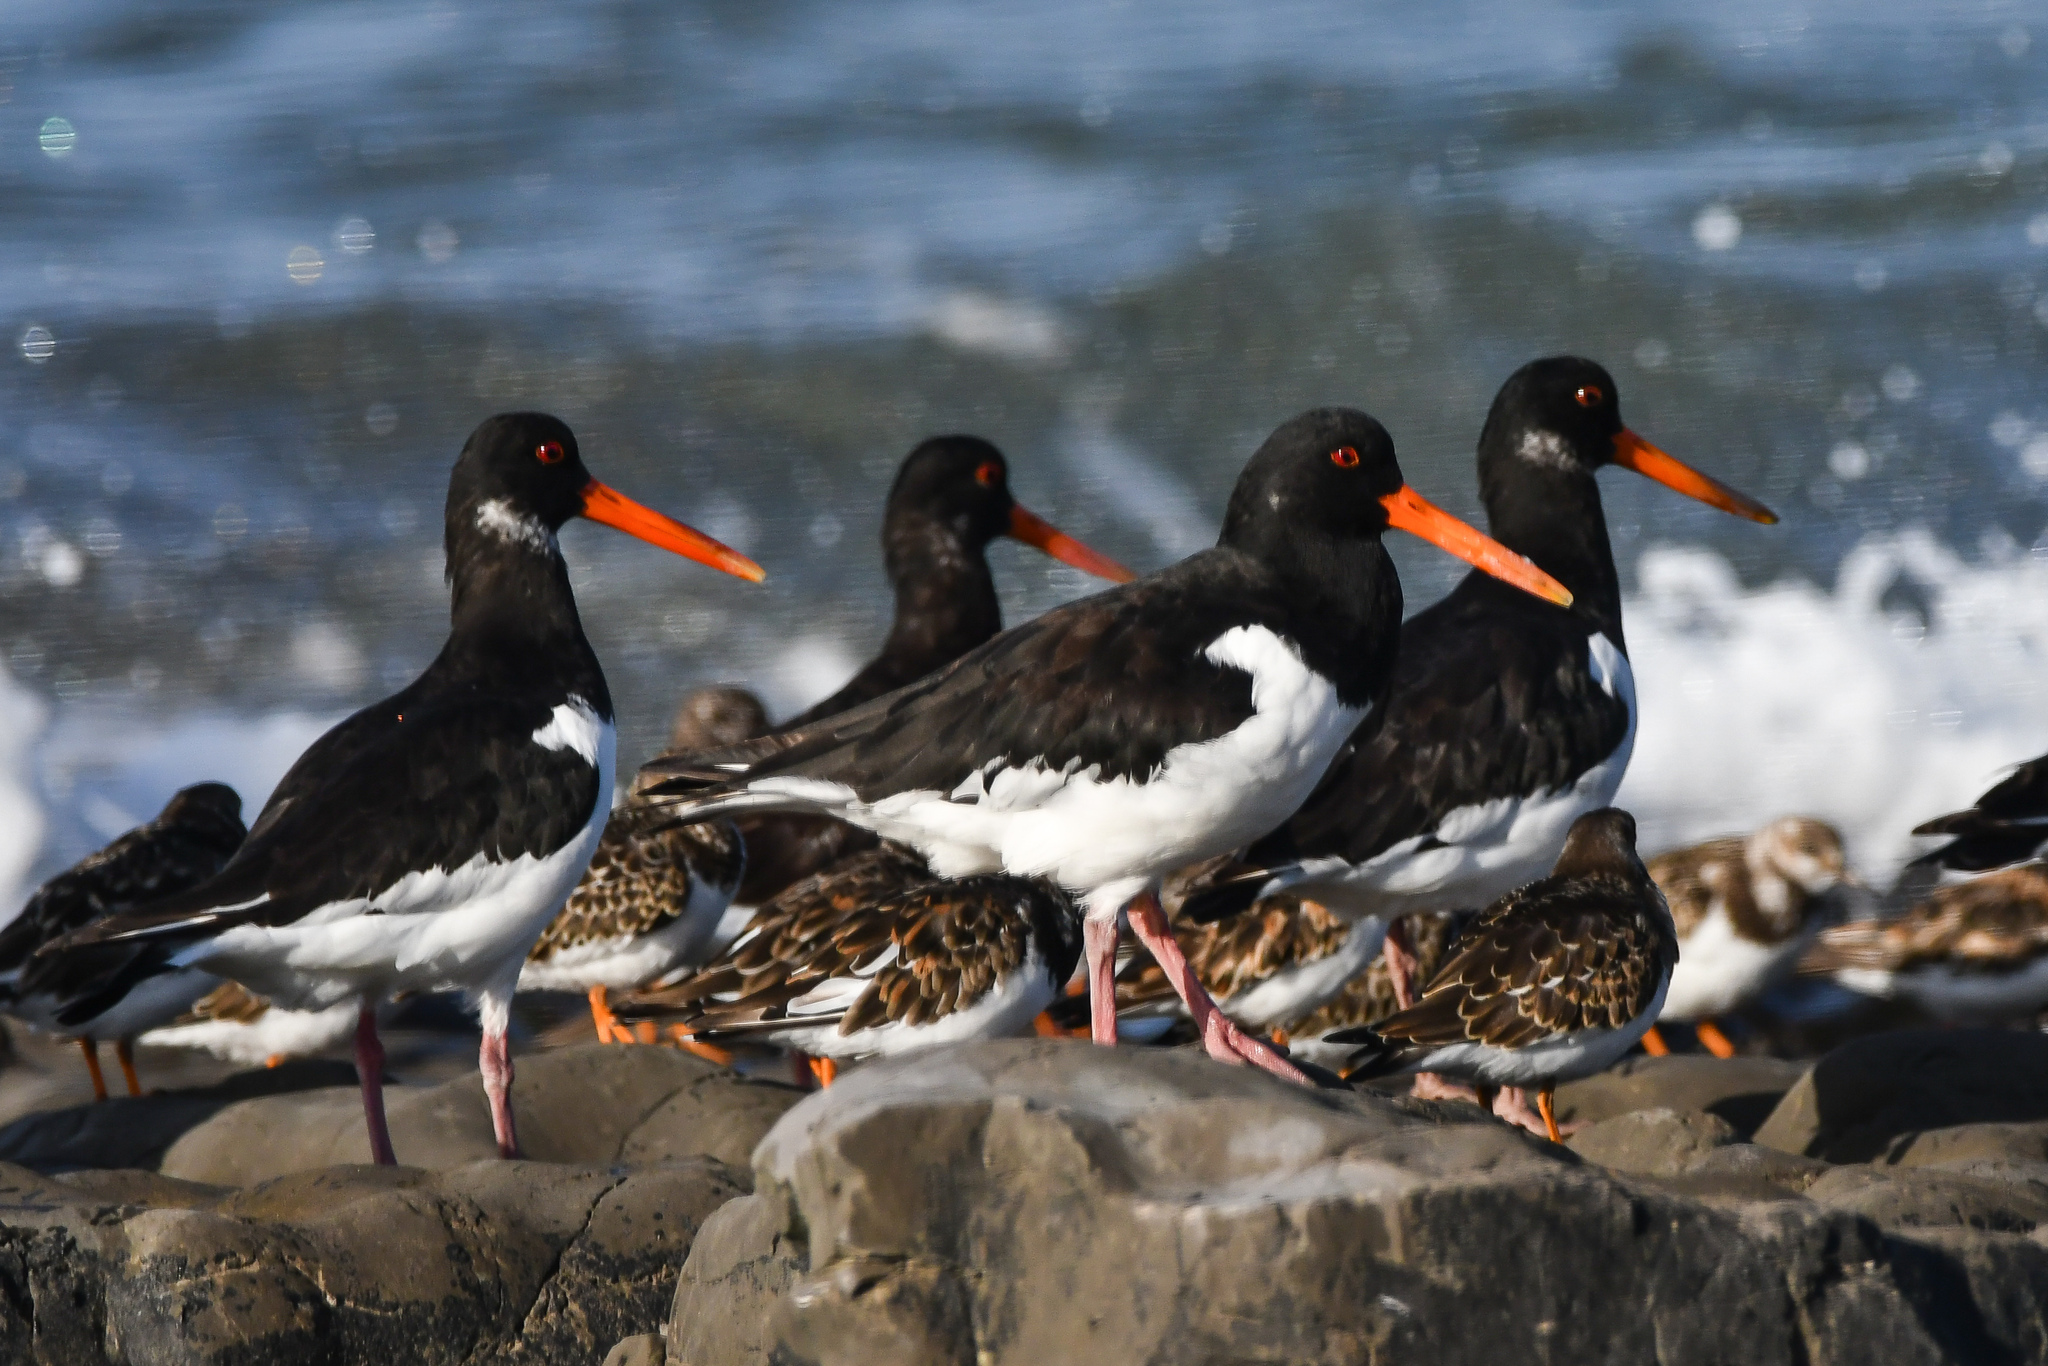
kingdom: Animalia
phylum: Chordata
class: Aves
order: Charadriiformes
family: Haematopodidae
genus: Haematopus
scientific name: Haematopus ostralegus
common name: Eurasian oystercatcher
